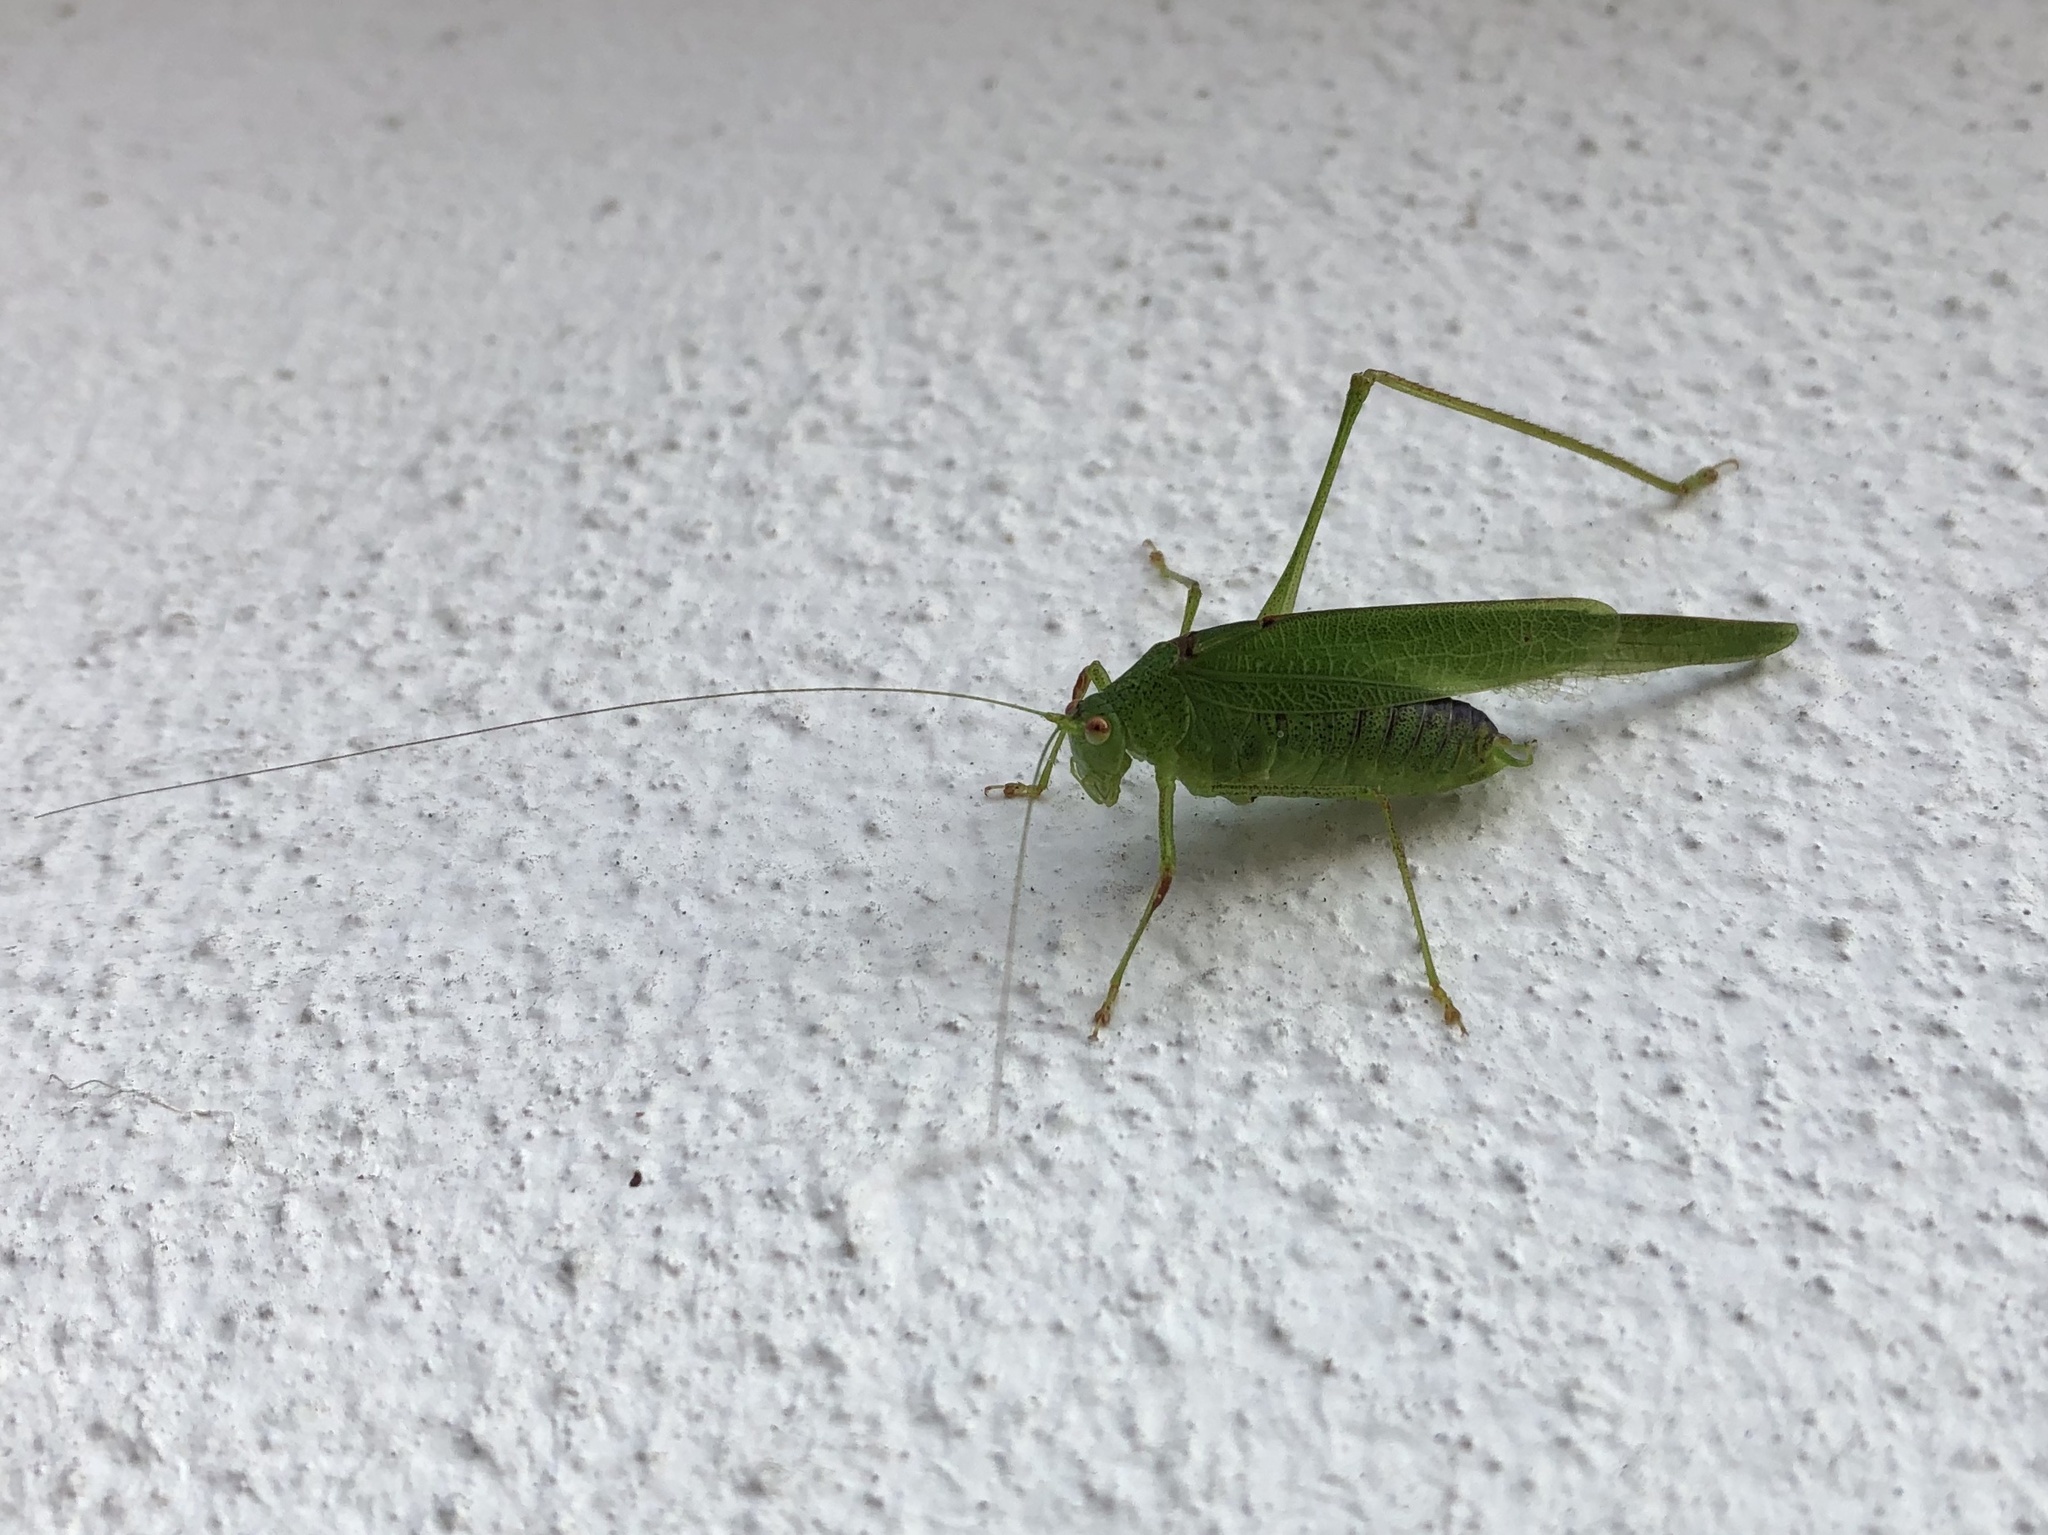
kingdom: Animalia
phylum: Arthropoda
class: Insecta
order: Orthoptera
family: Tettigoniidae
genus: Phaneroptera
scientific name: Phaneroptera nana
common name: Southern sickle bush-cricket
